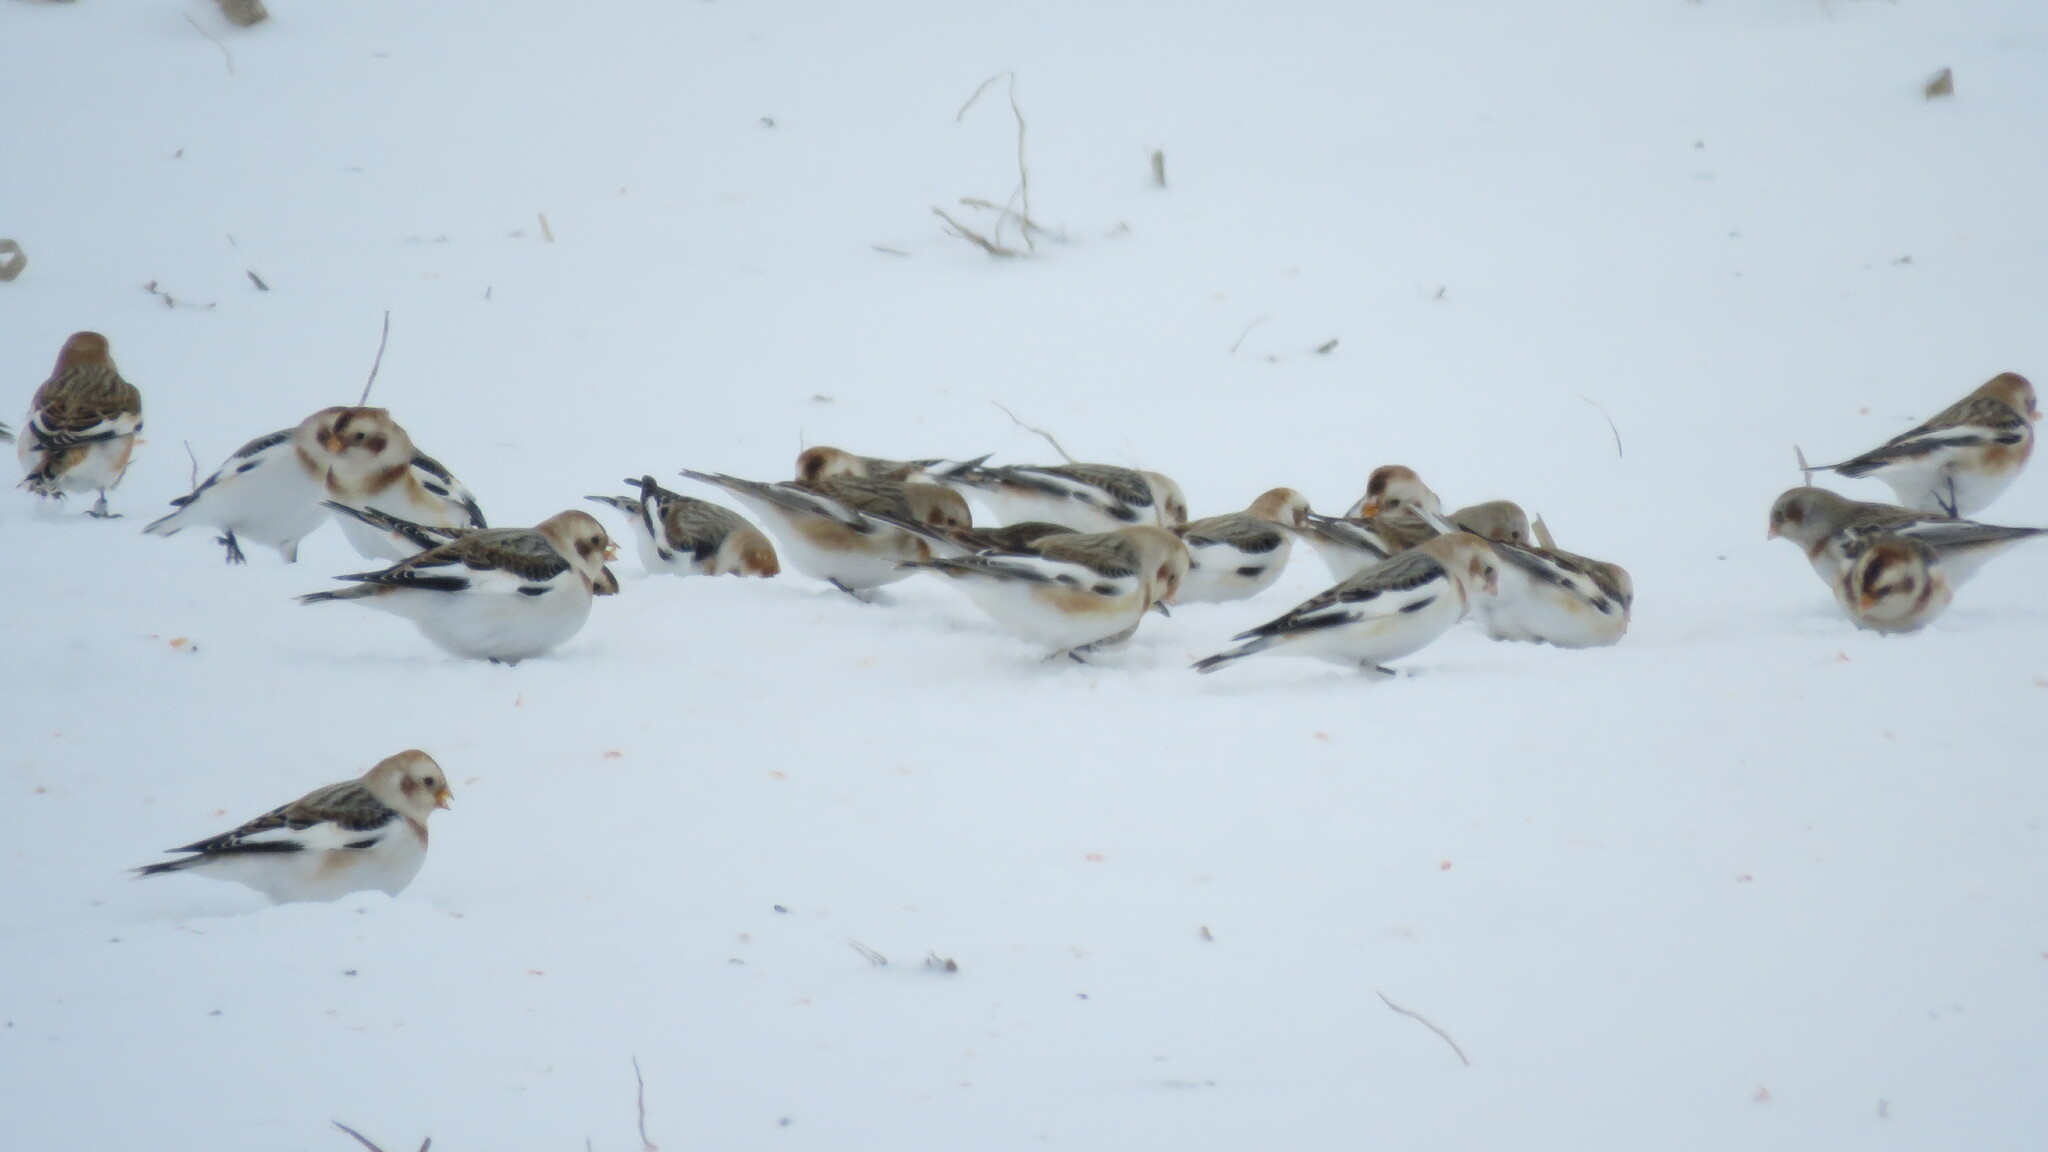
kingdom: Animalia
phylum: Chordata
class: Aves
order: Passeriformes
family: Calcariidae
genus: Plectrophenax
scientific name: Plectrophenax nivalis
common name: Snow bunting
